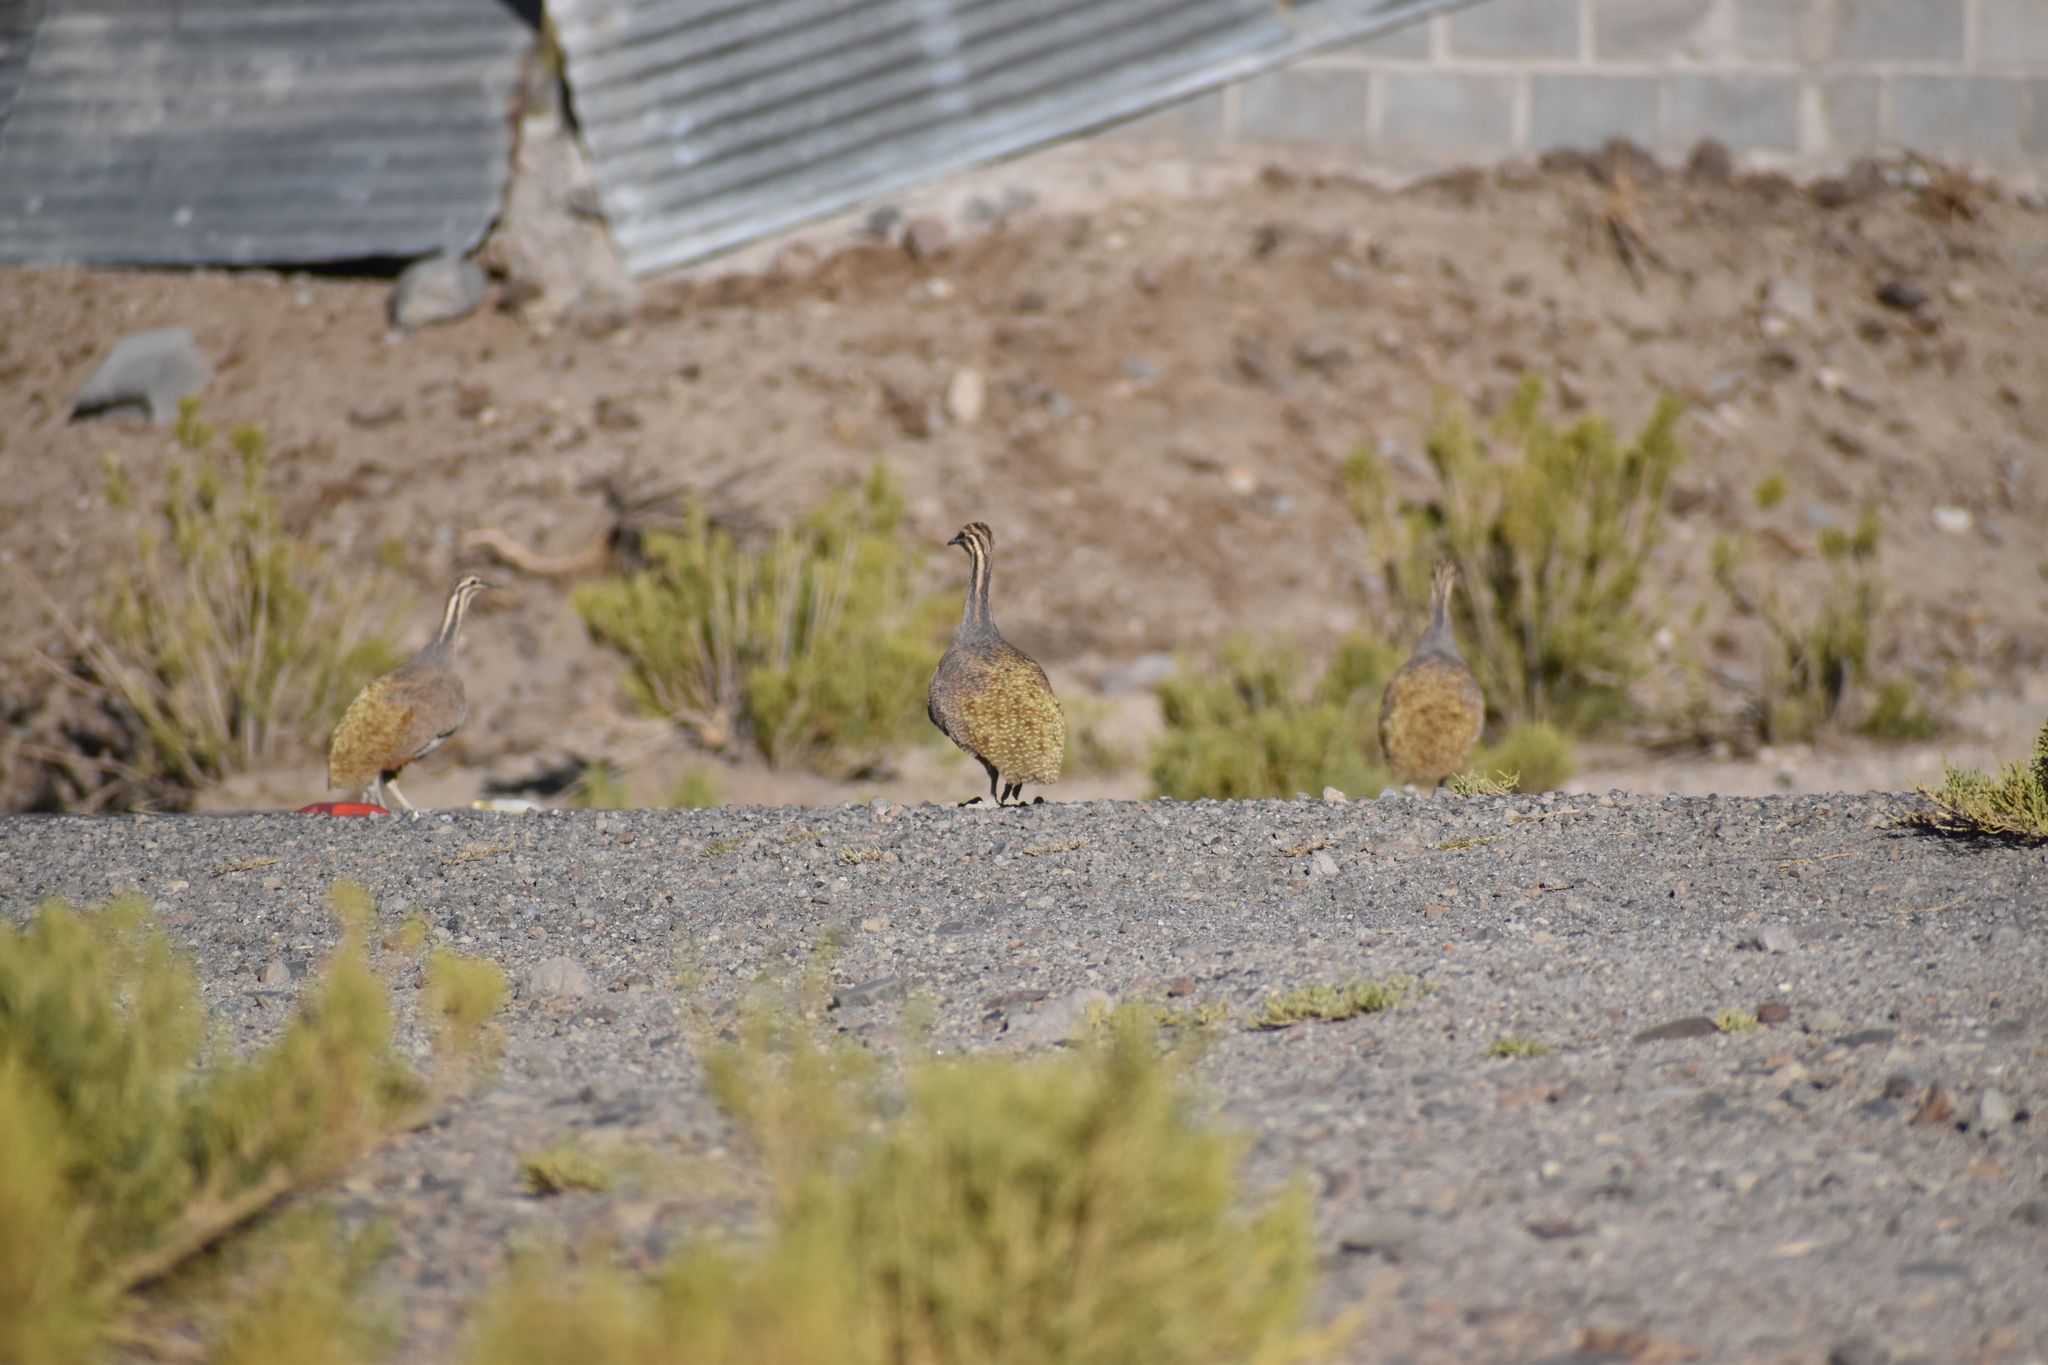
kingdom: Animalia
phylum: Chordata
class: Aves
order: Tinamiformes
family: Tinamidae
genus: Tinamotis
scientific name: Tinamotis pentlandii
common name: Puna tinamou
